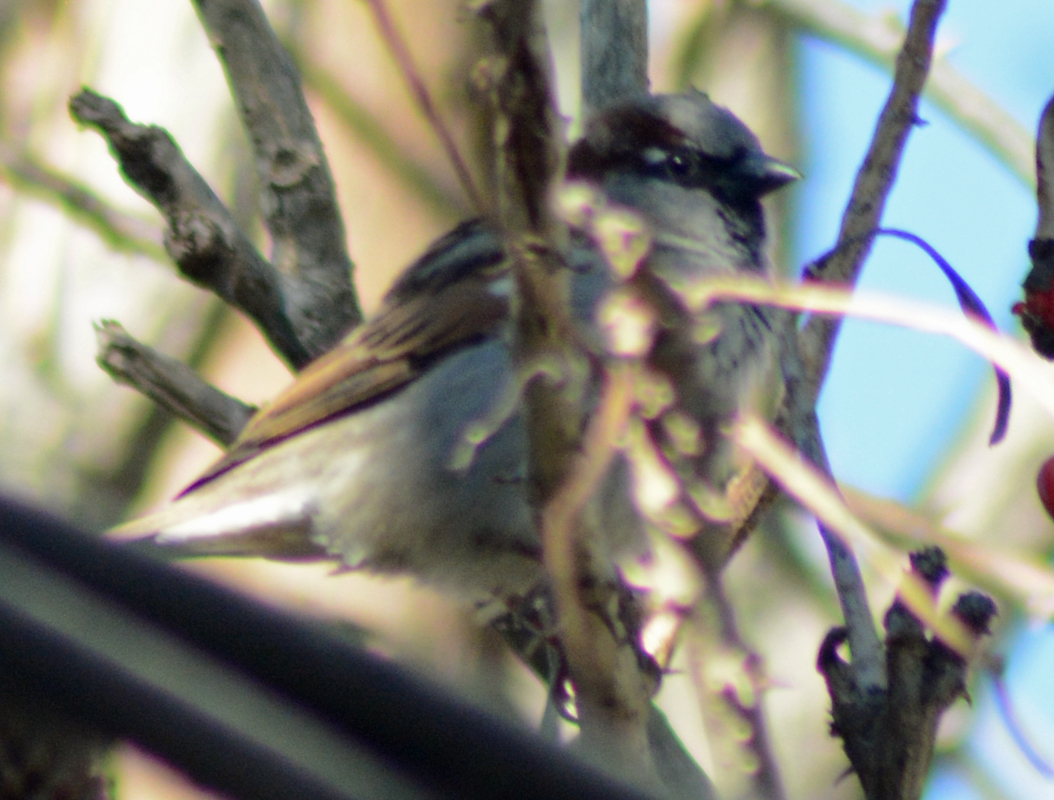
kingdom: Animalia
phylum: Chordata
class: Aves
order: Passeriformes
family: Passeridae
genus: Passer
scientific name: Passer domesticus
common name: House sparrow
